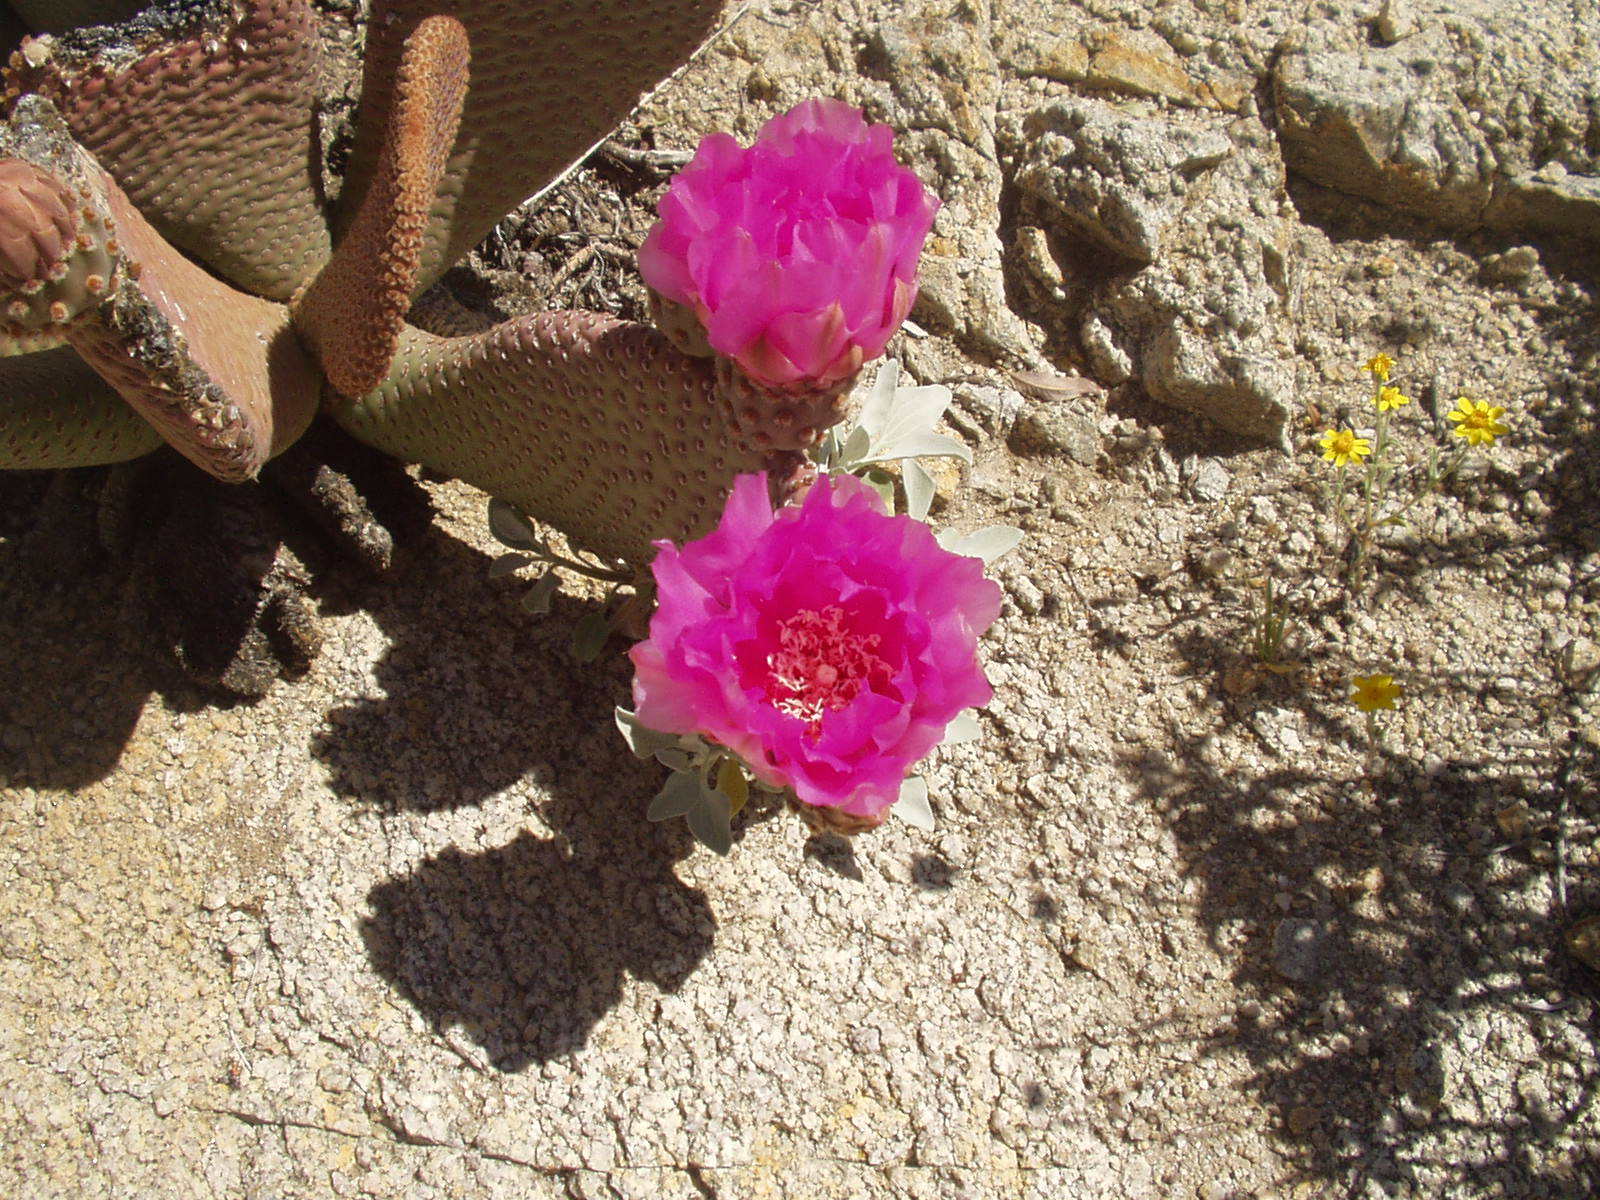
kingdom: Plantae
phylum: Tracheophyta
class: Magnoliopsida
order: Caryophyllales
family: Cactaceae
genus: Opuntia
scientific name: Opuntia basilaris
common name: Beavertail prickly-pear
